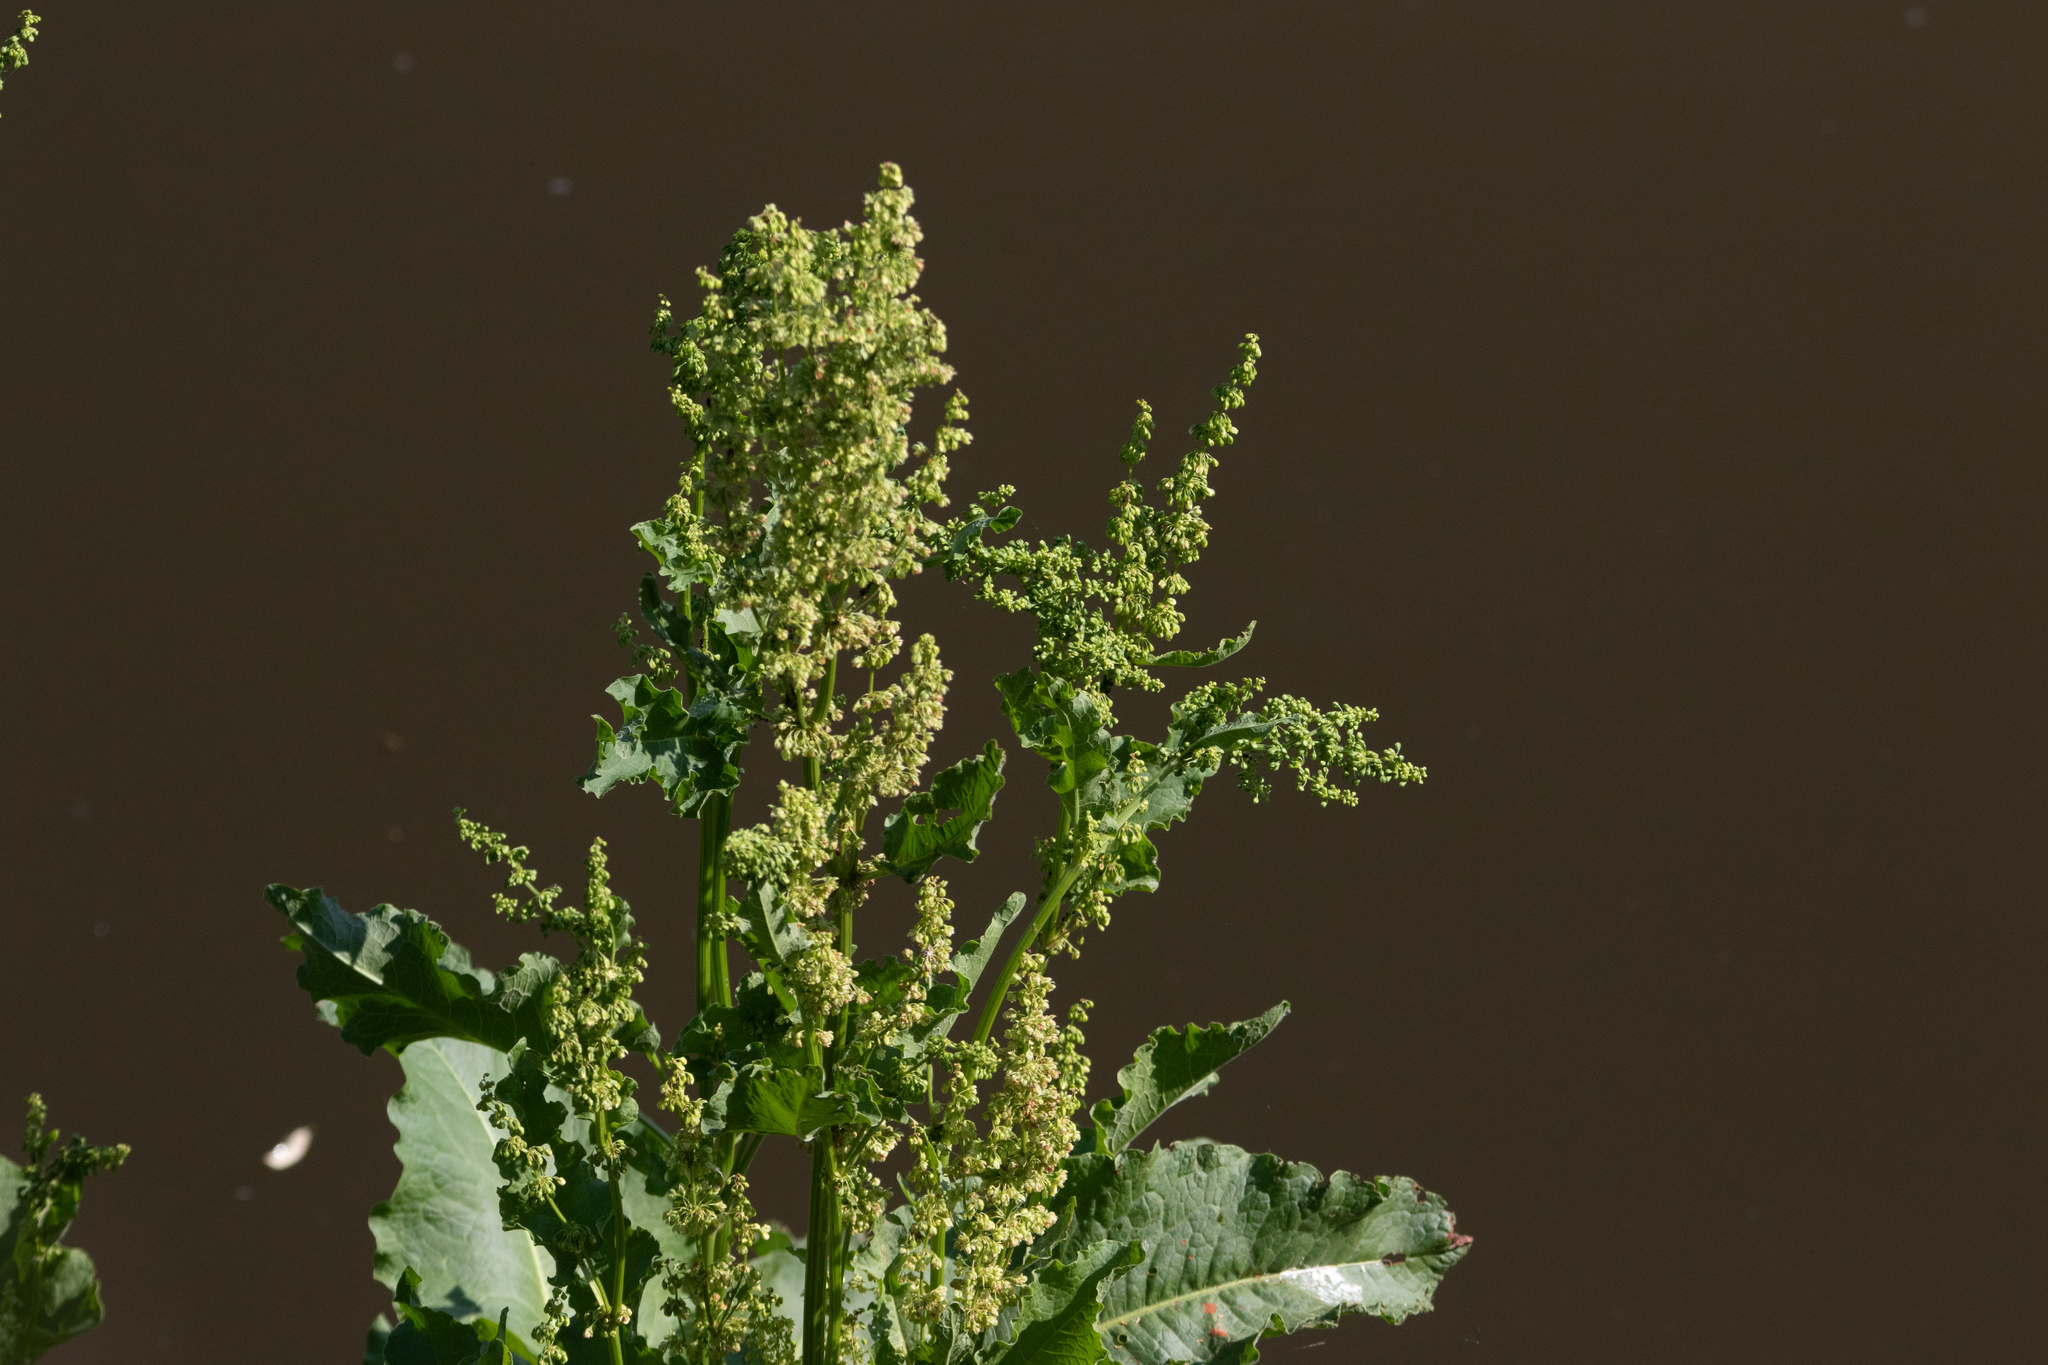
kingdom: Plantae
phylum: Tracheophyta
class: Magnoliopsida
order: Caryophyllales
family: Polygonaceae
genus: Rumex
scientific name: Rumex confertus
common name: Russian dock
